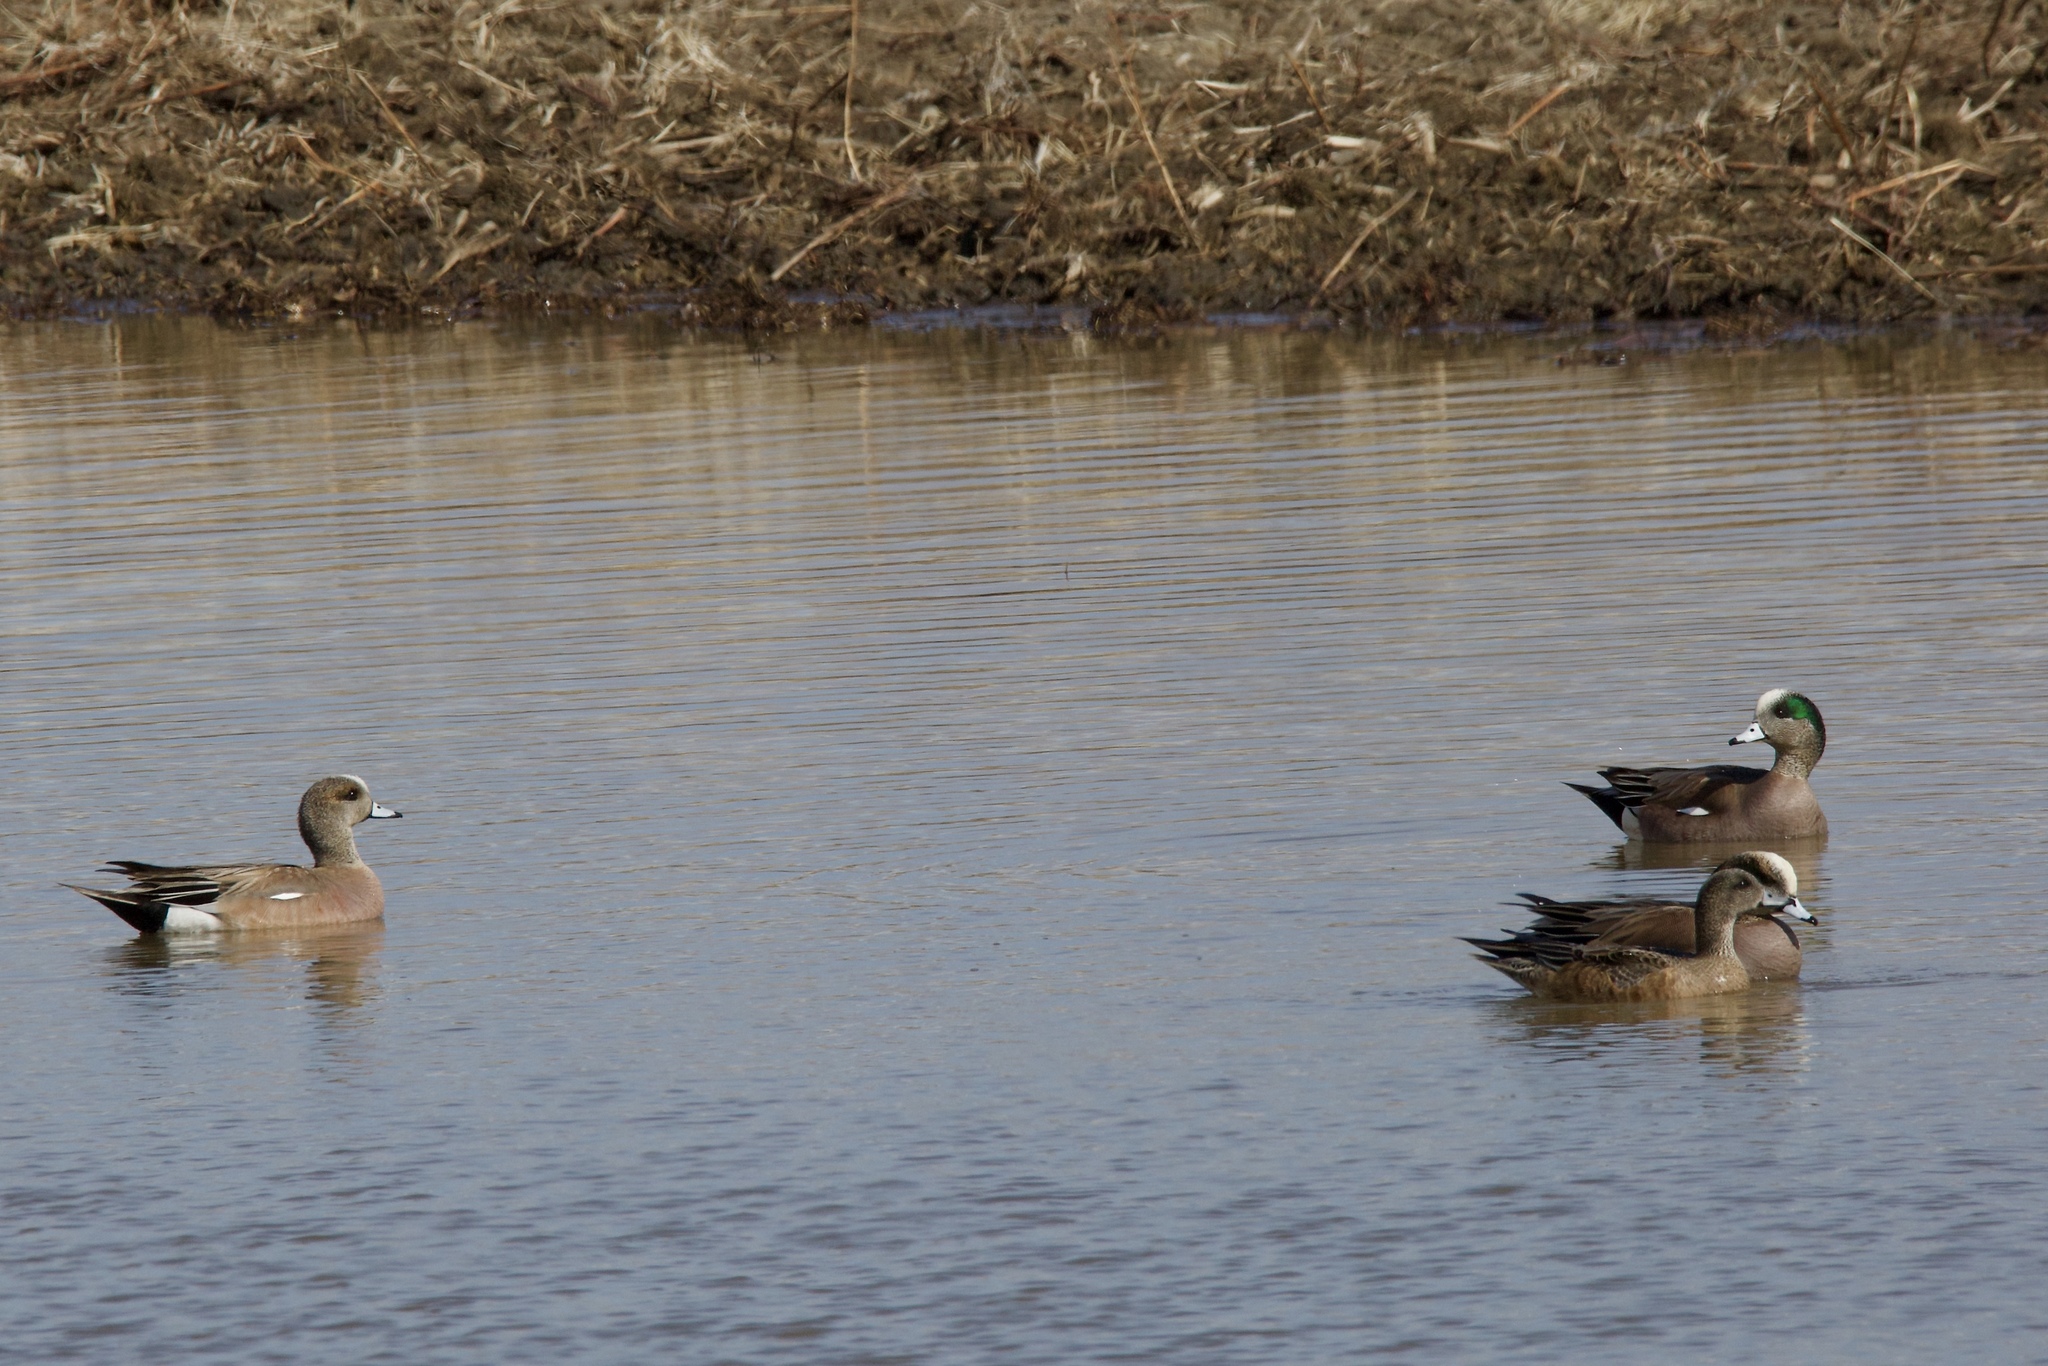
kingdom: Animalia
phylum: Chordata
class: Aves
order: Anseriformes
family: Anatidae
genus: Mareca
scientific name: Mareca americana
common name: American wigeon
